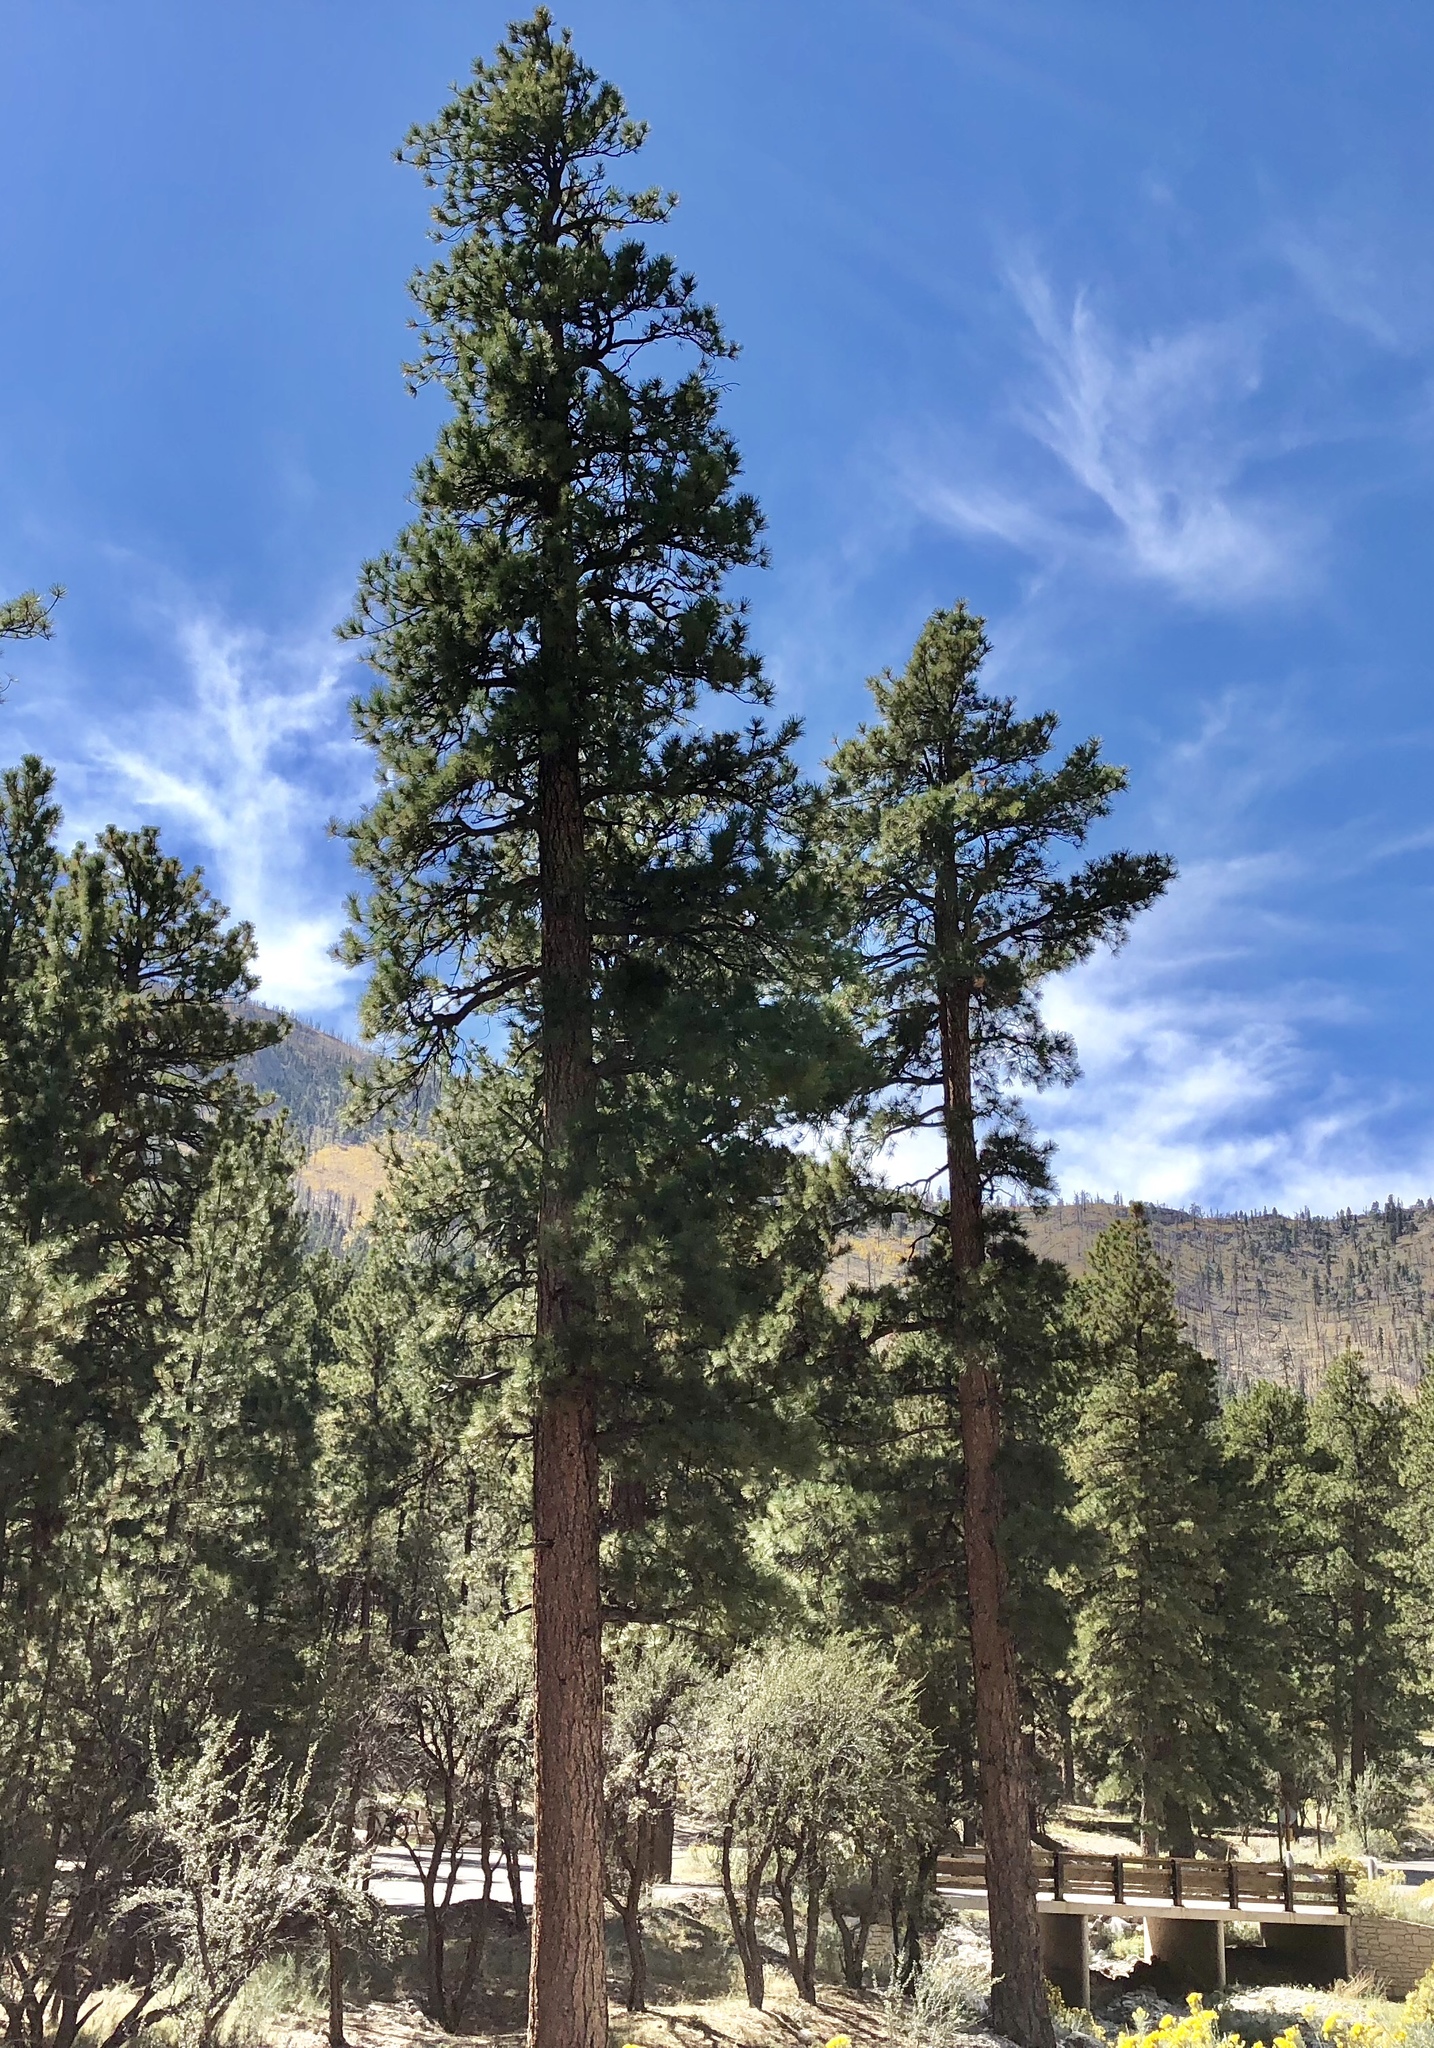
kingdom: Plantae
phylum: Tracheophyta
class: Pinopsida
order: Pinales
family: Pinaceae
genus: Pinus
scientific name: Pinus ponderosa
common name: Western yellow-pine
